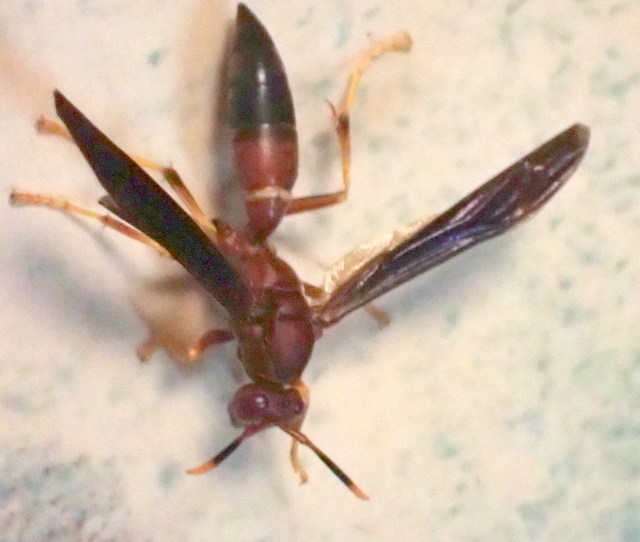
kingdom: Animalia
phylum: Arthropoda
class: Insecta
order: Hymenoptera
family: Eumenidae
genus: Polistes
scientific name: Polistes annularis
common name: Ringed paper wasp
